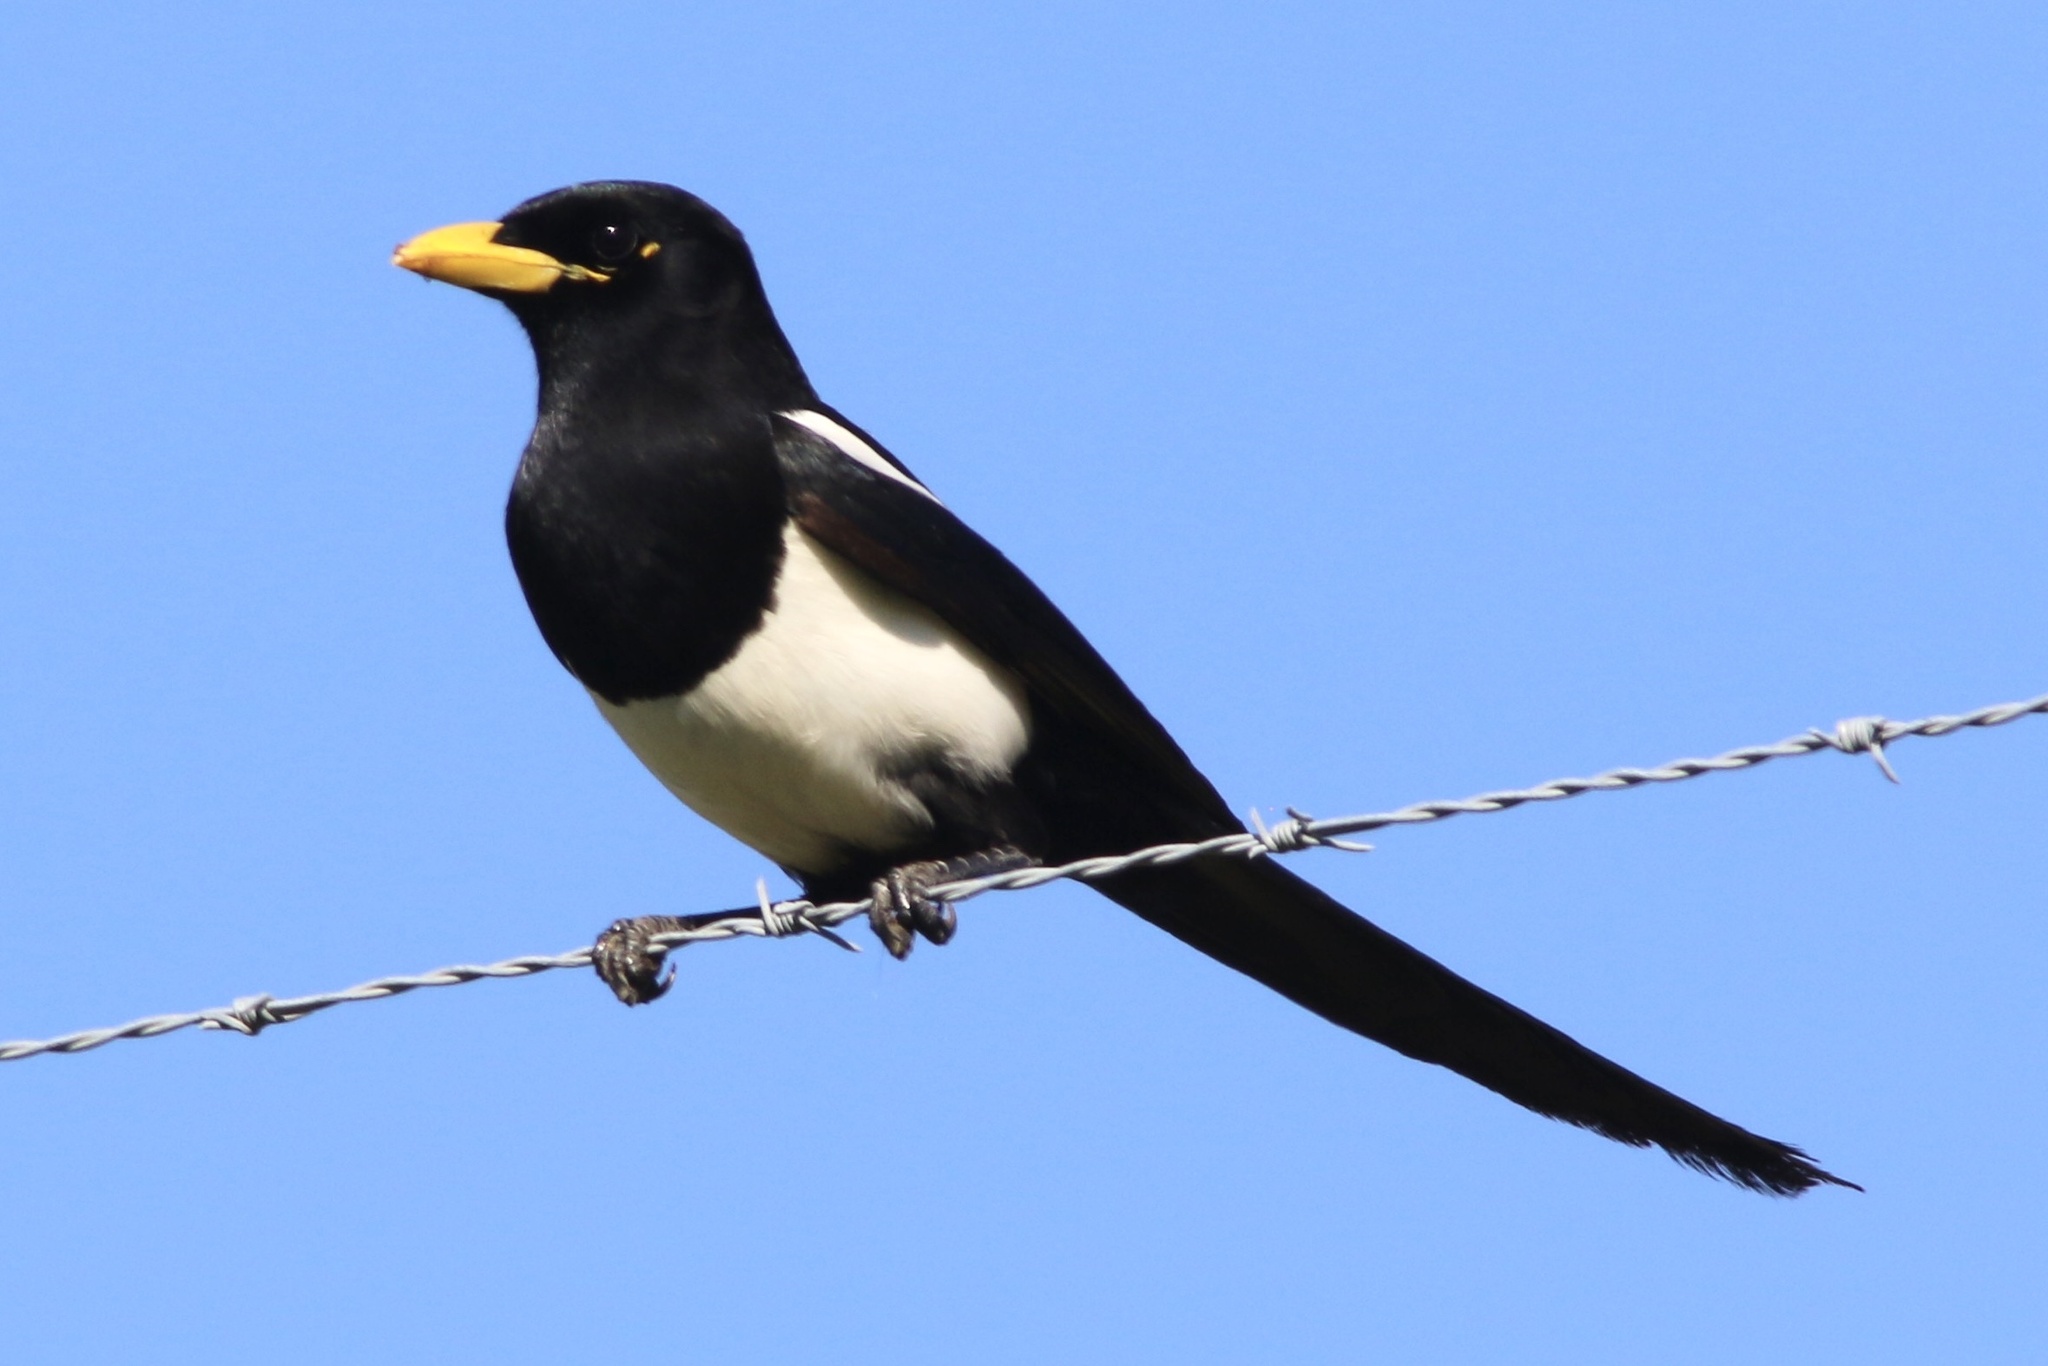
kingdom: Animalia
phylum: Chordata
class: Aves
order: Passeriformes
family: Corvidae
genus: Pica
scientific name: Pica nuttalli
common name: Yellow-billed magpie
